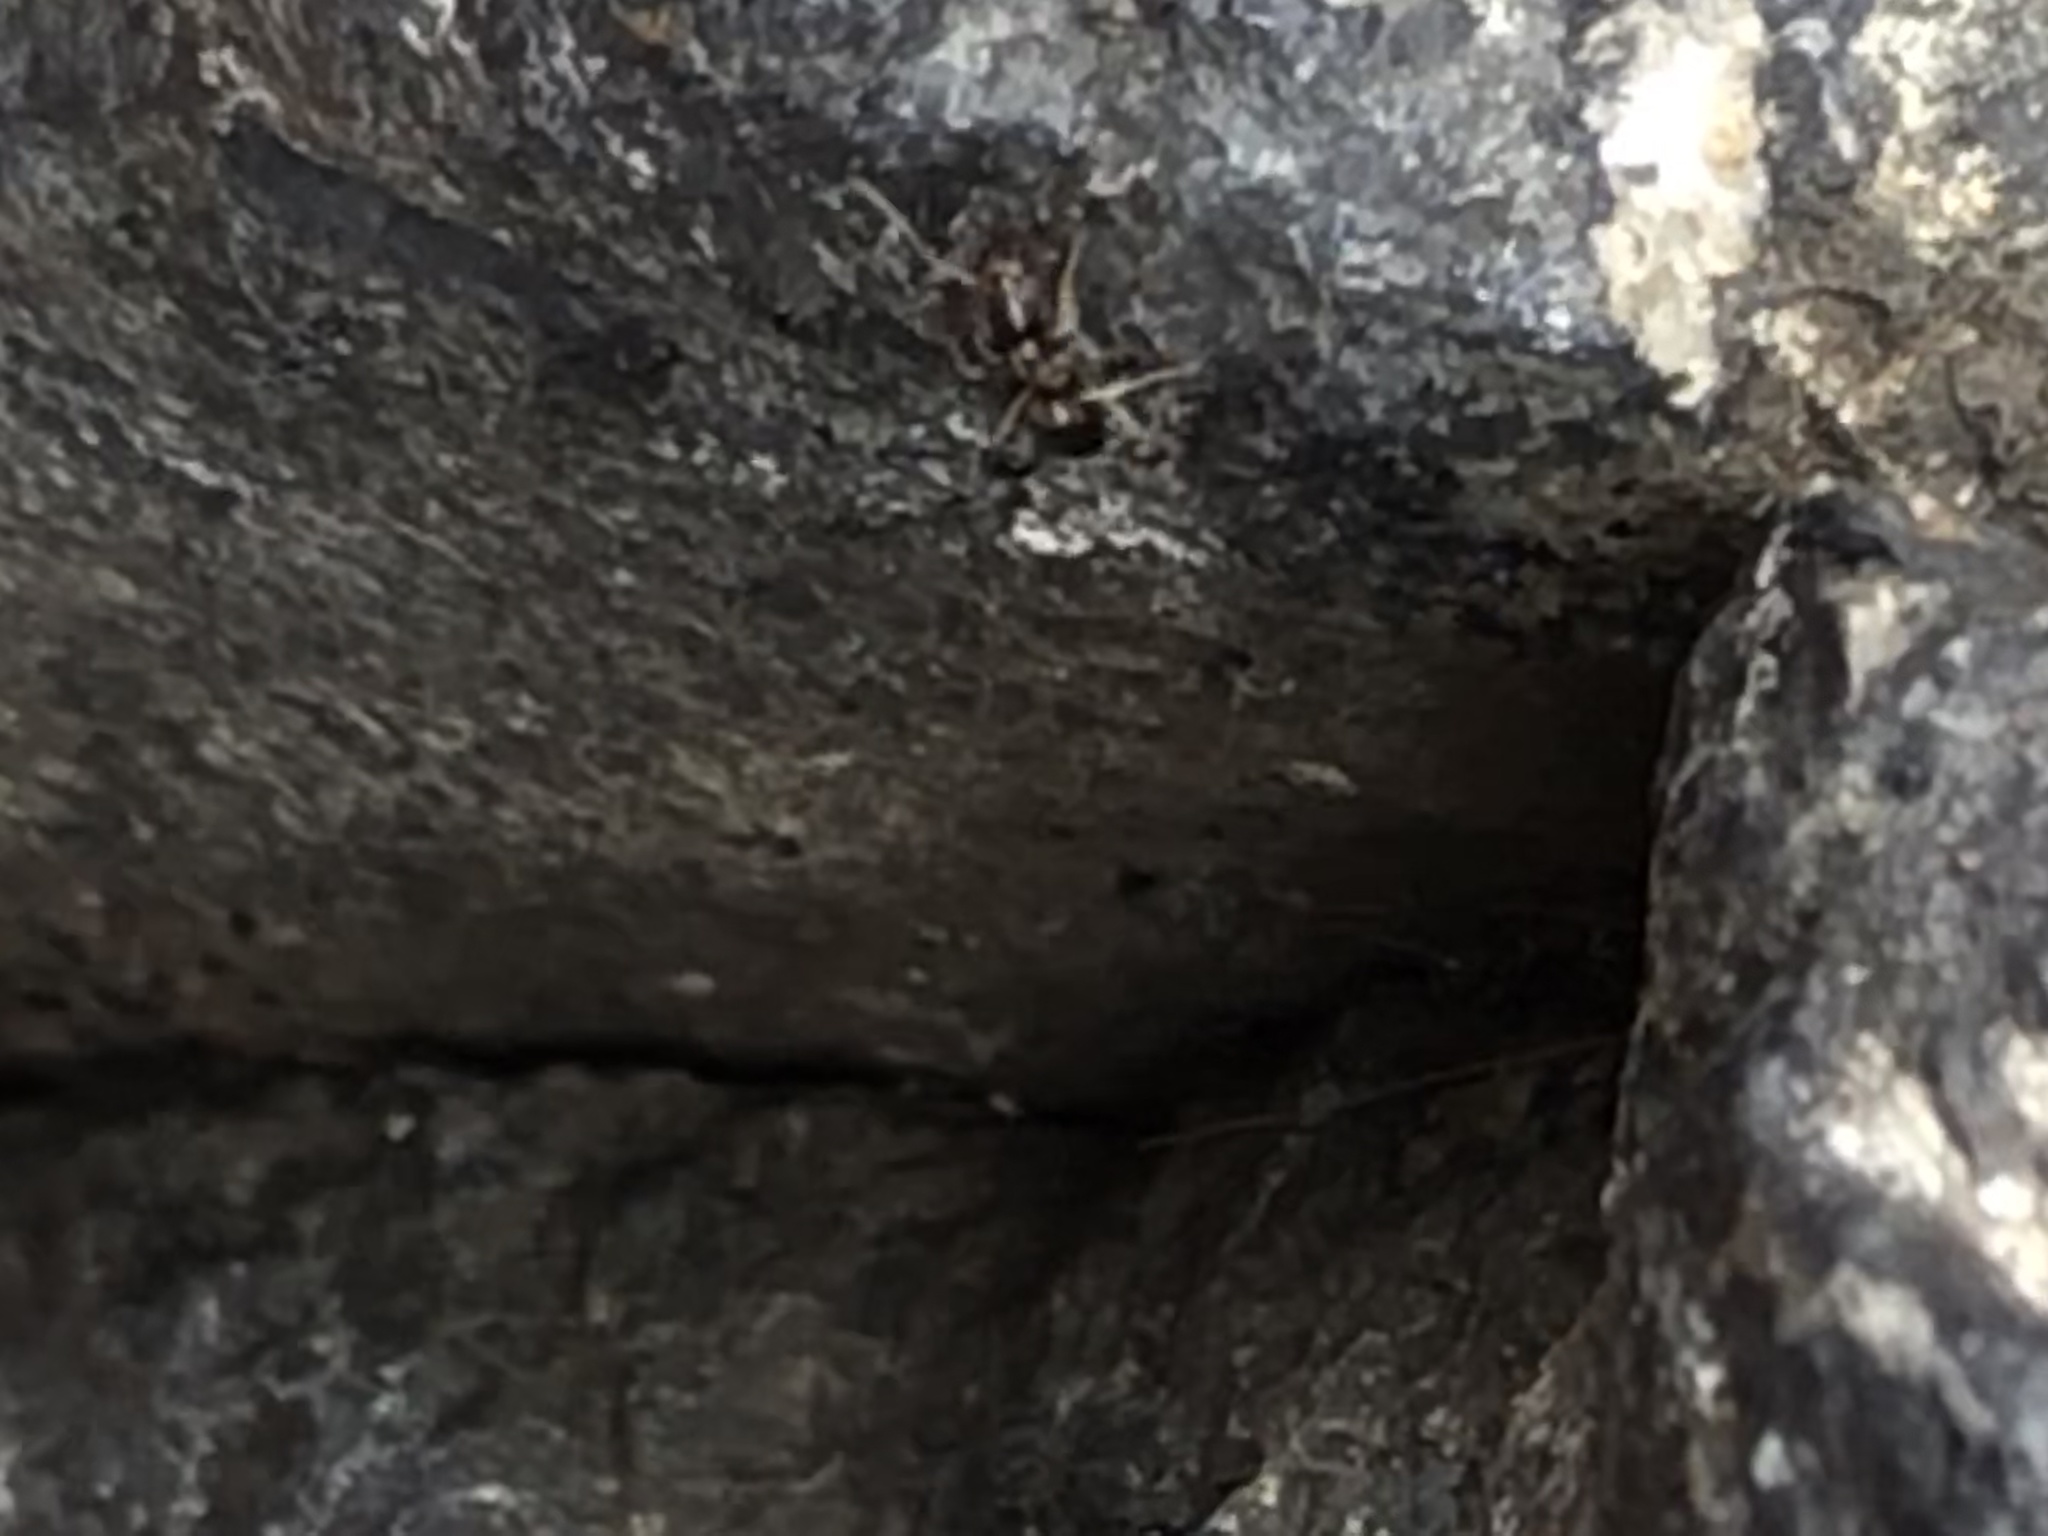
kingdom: Animalia
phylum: Arthropoda
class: Insecta
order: Hymenoptera
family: Formicidae
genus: Tapinoma
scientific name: Tapinoma sessile
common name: Odorous house ant
